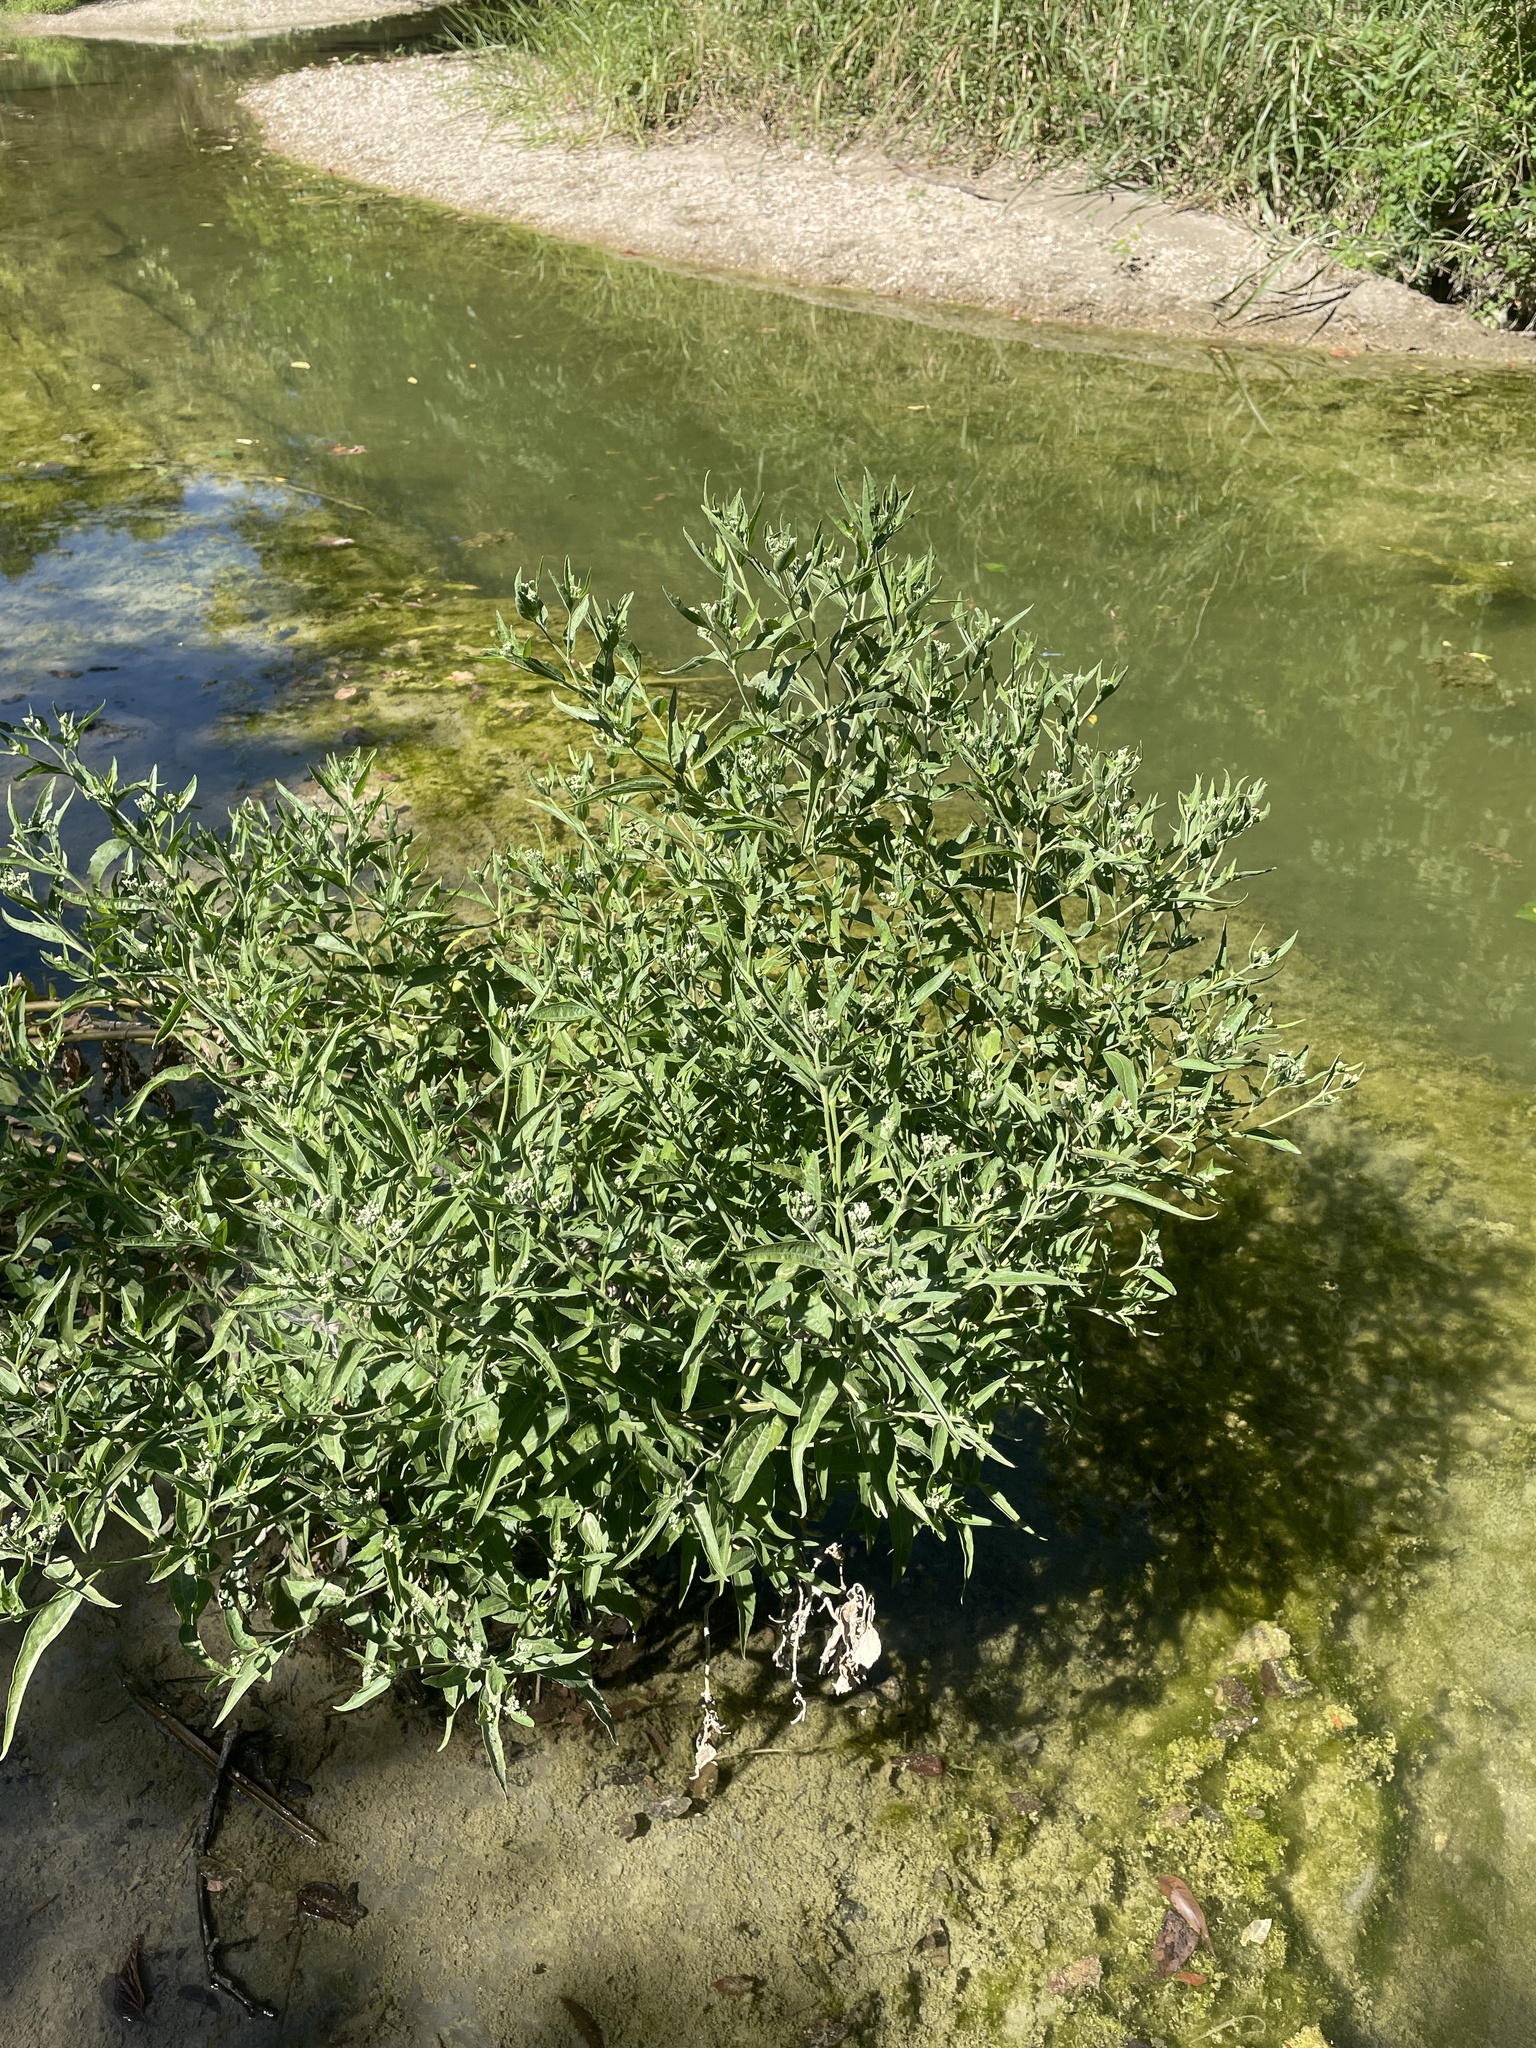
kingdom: Plantae
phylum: Tracheophyta
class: Magnoliopsida
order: Asterales
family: Asteraceae
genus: Eupatorium
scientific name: Eupatorium serotinum
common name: Late boneset
